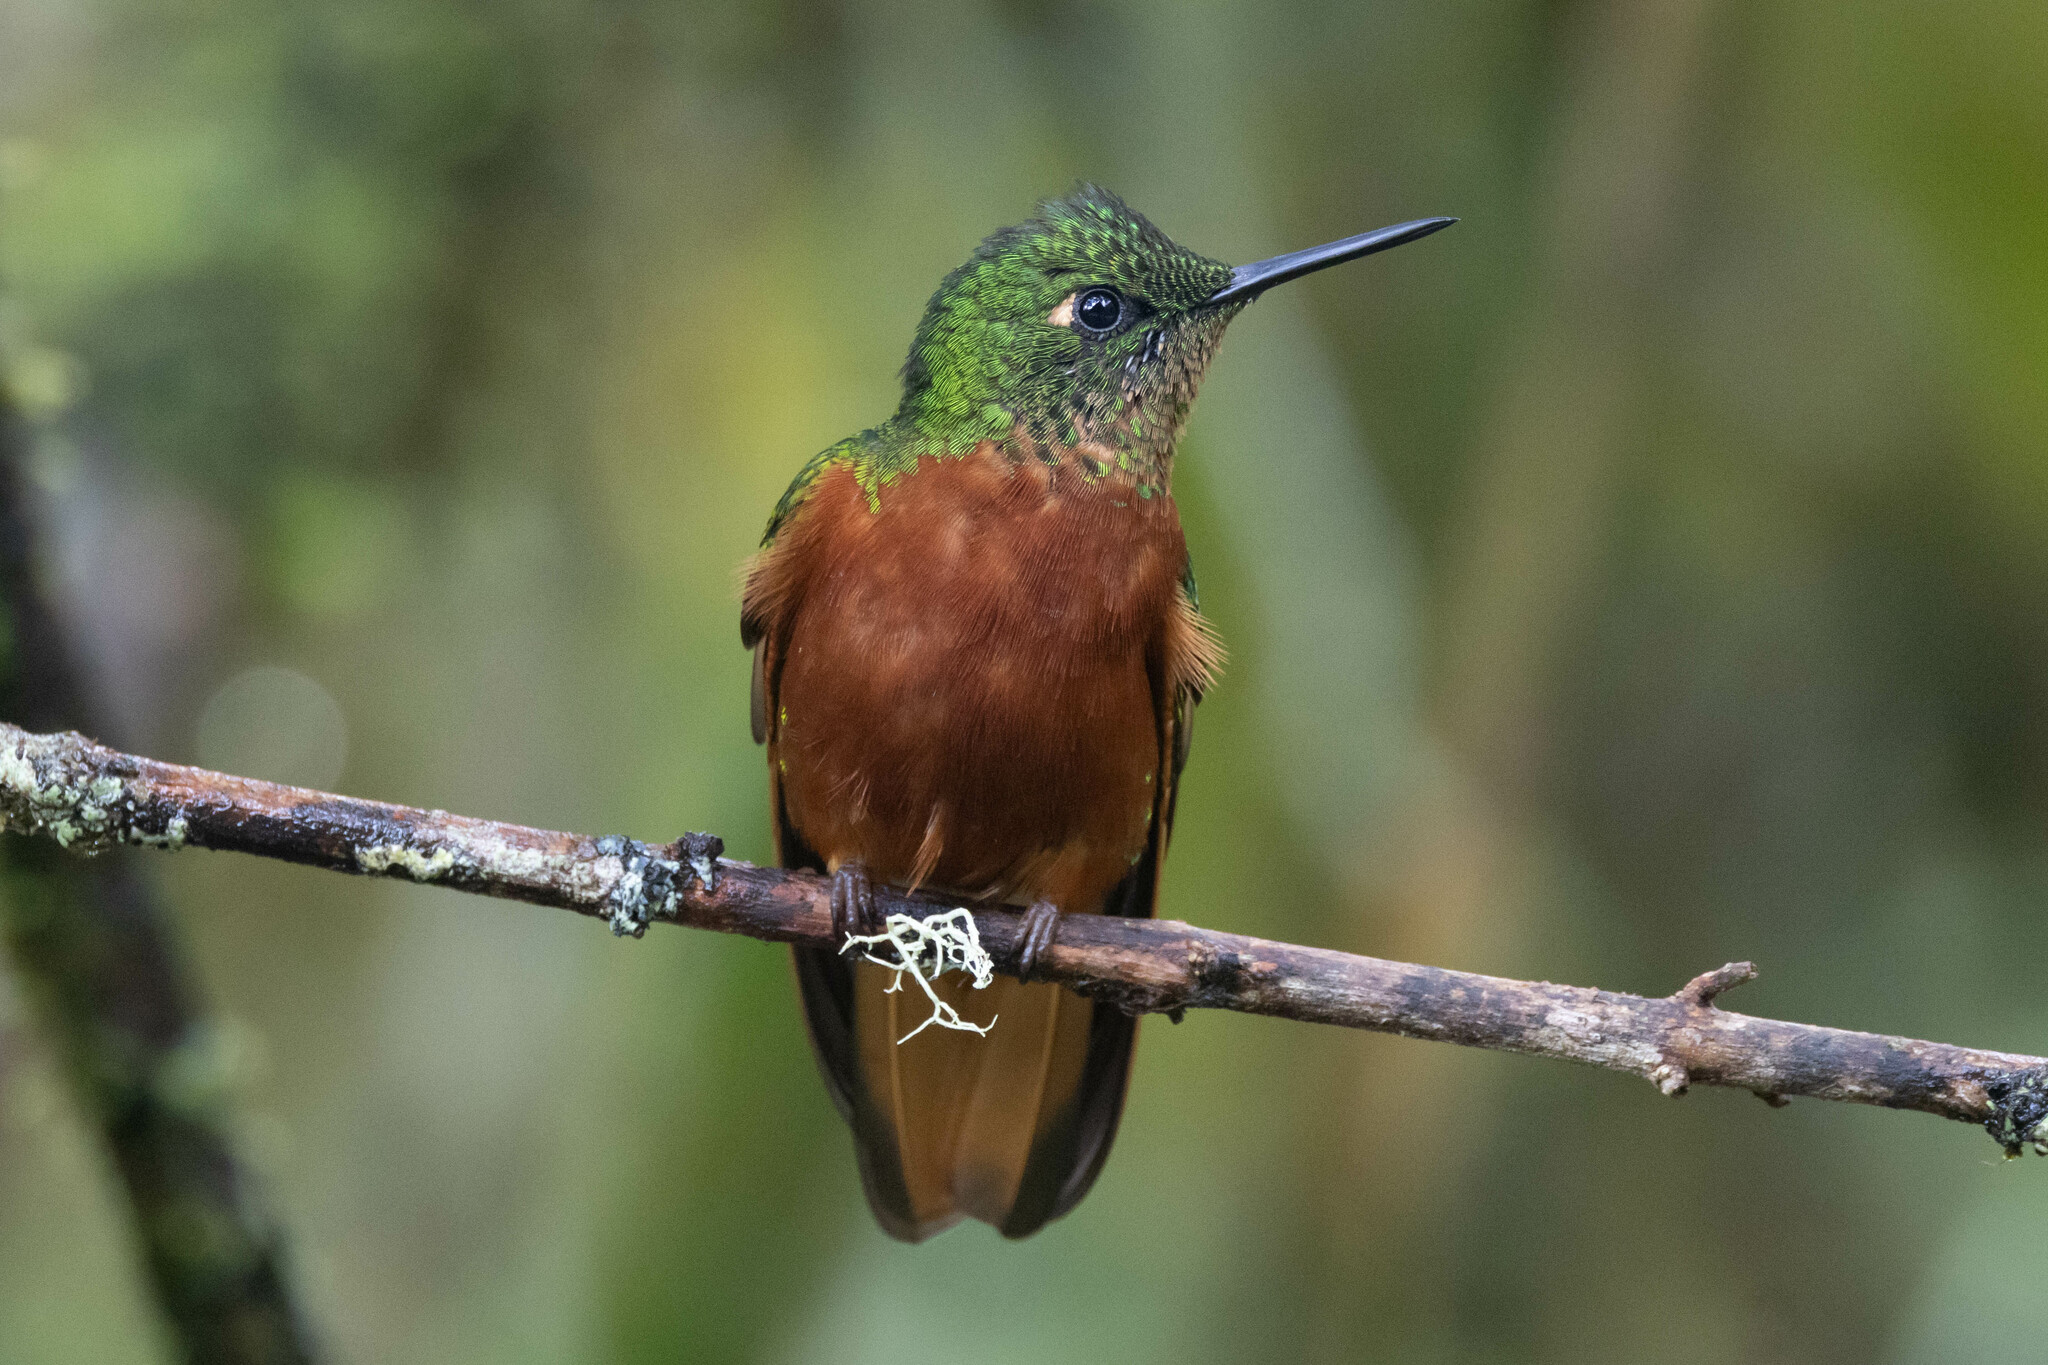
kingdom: Animalia
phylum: Chordata
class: Aves
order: Apodiformes
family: Trochilidae
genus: Boissonneaua
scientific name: Boissonneaua matthewsii
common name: Chestnut-breasted coronet
